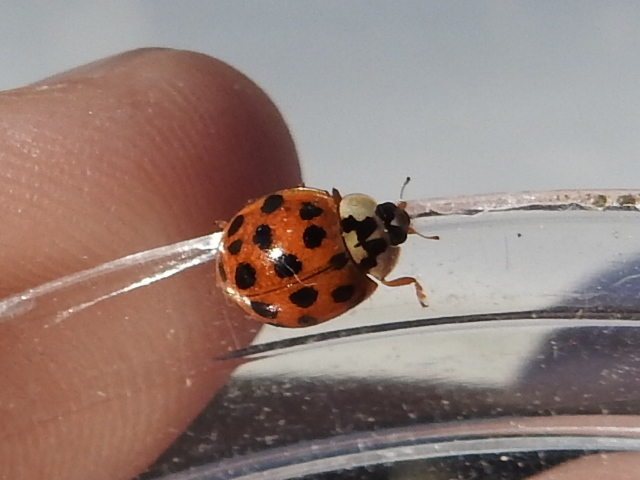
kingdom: Animalia
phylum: Arthropoda
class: Insecta
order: Coleoptera
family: Coccinellidae
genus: Harmonia
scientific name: Harmonia axyridis
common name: Harlequin ladybird
